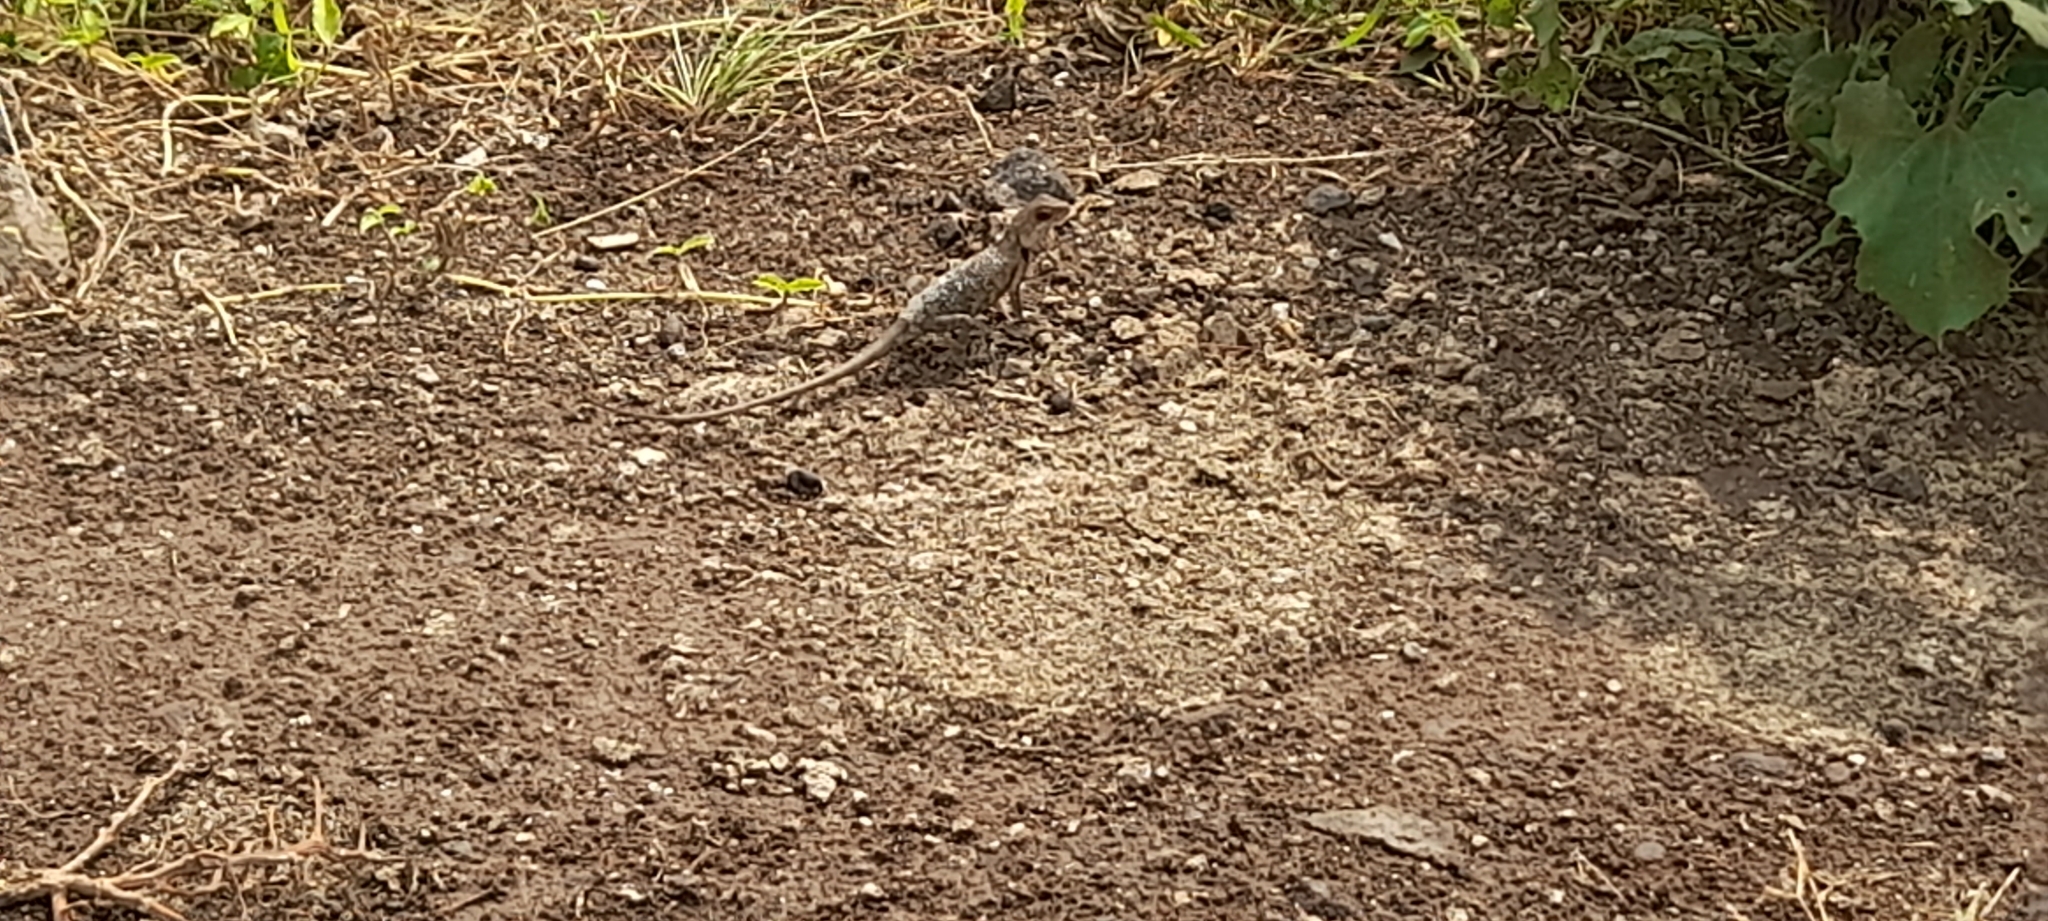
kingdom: Animalia
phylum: Chordata
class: Squamata
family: Agamidae
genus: Calotes
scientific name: Calotes versicolor
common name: Oriental garden lizard
